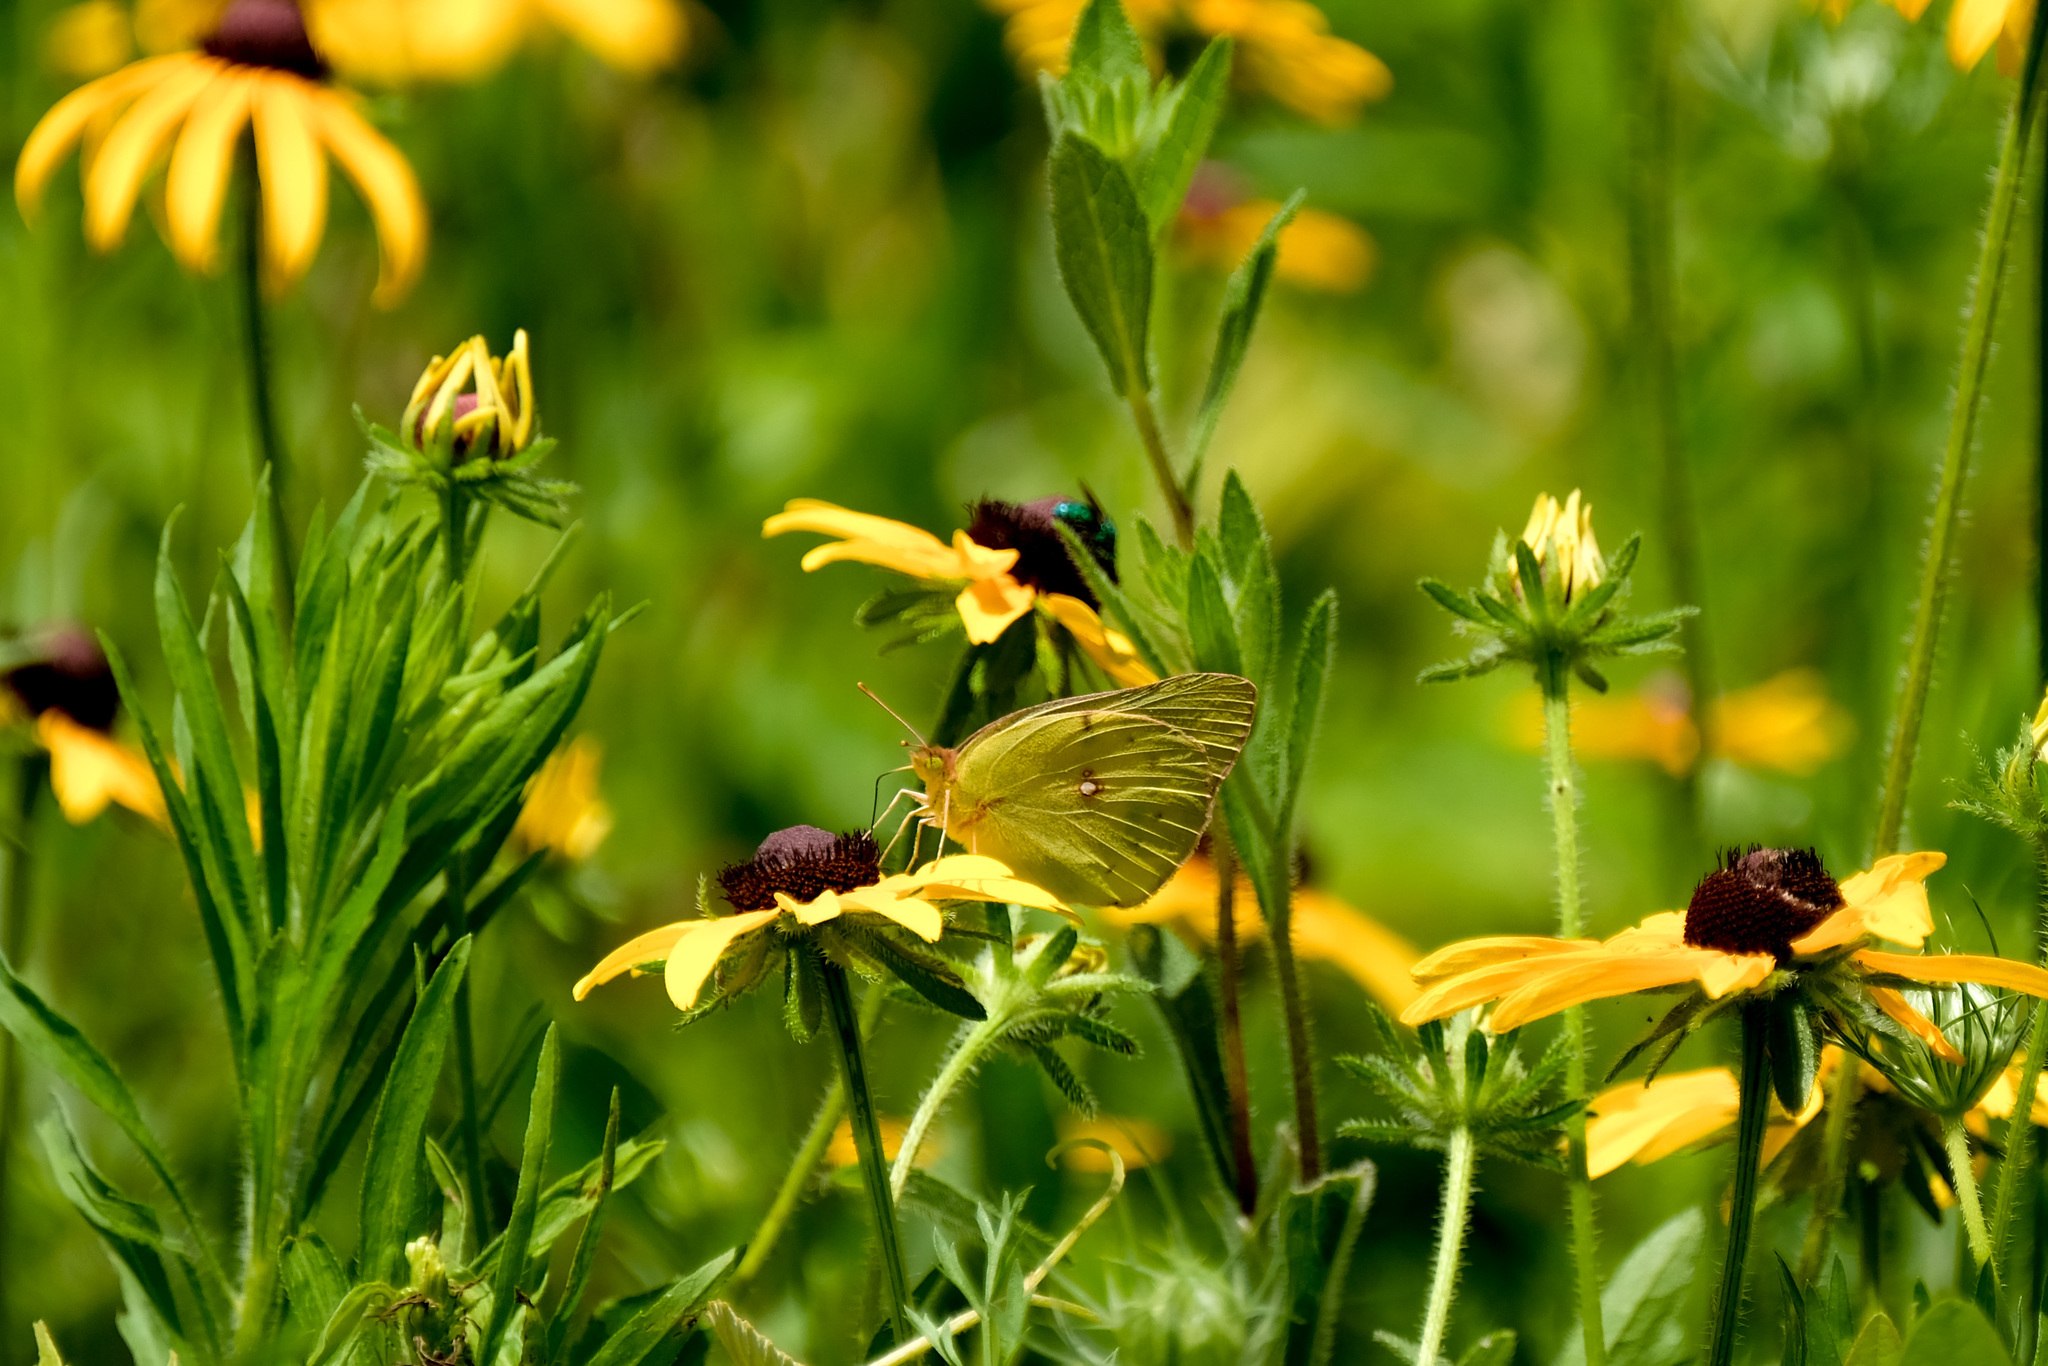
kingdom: Animalia
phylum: Arthropoda
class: Insecta
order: Lepidoptera
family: Pieridae
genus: Colias
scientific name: Colias eurytheme
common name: Alfalfa butterfly
